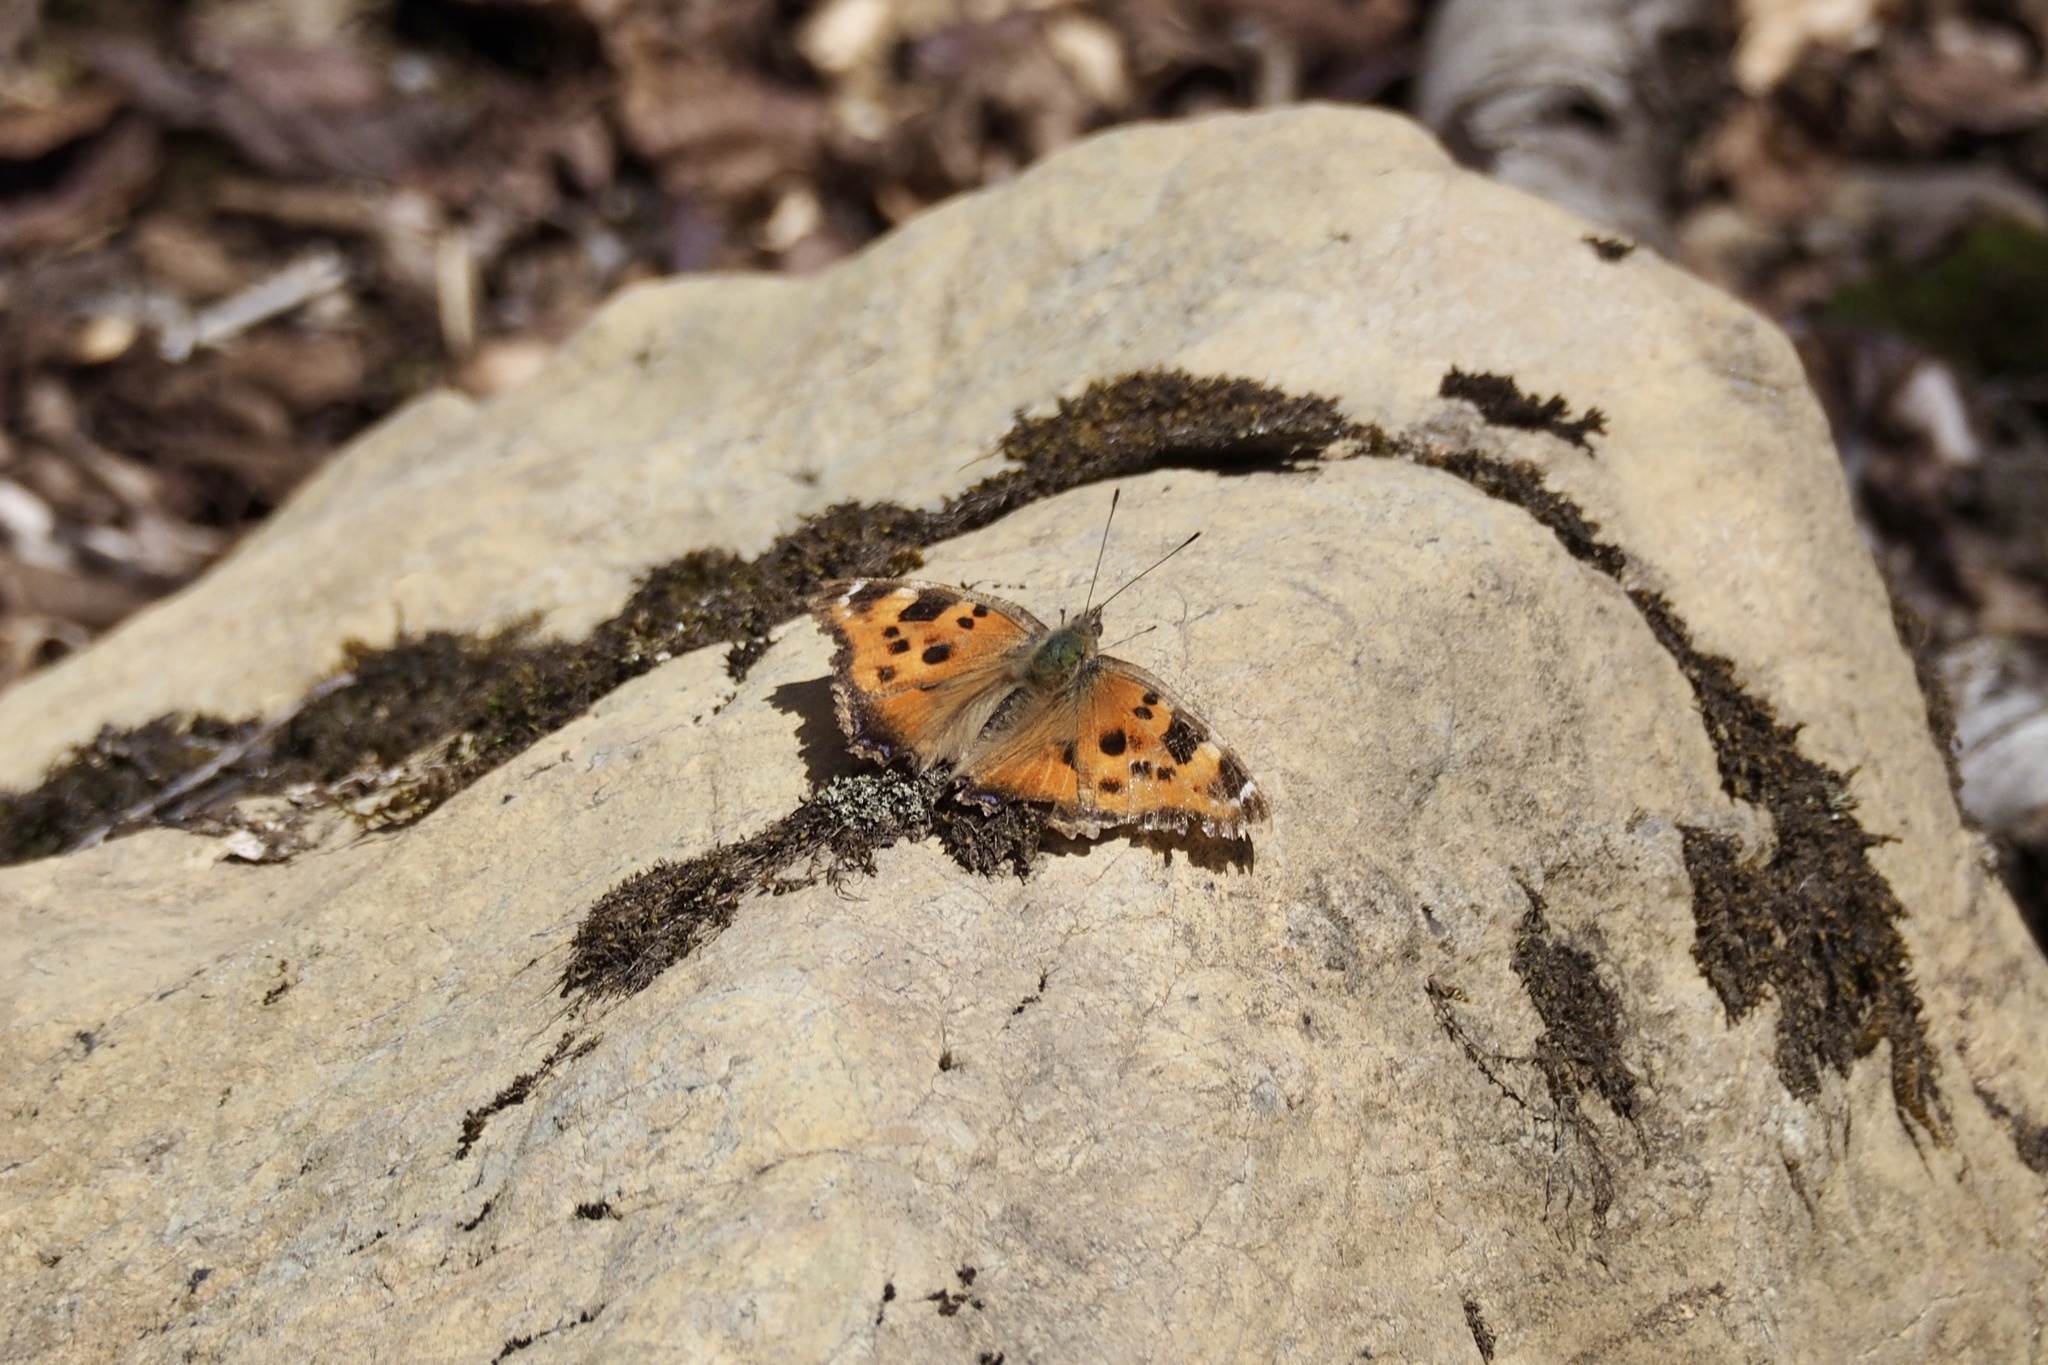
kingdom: Animalia
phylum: Arthropoda
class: Insecta
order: Lepidoptera
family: Nymphalidae
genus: Nymphalis
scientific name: Nymphalis xanthomelas
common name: Scarce tortoiseshell
